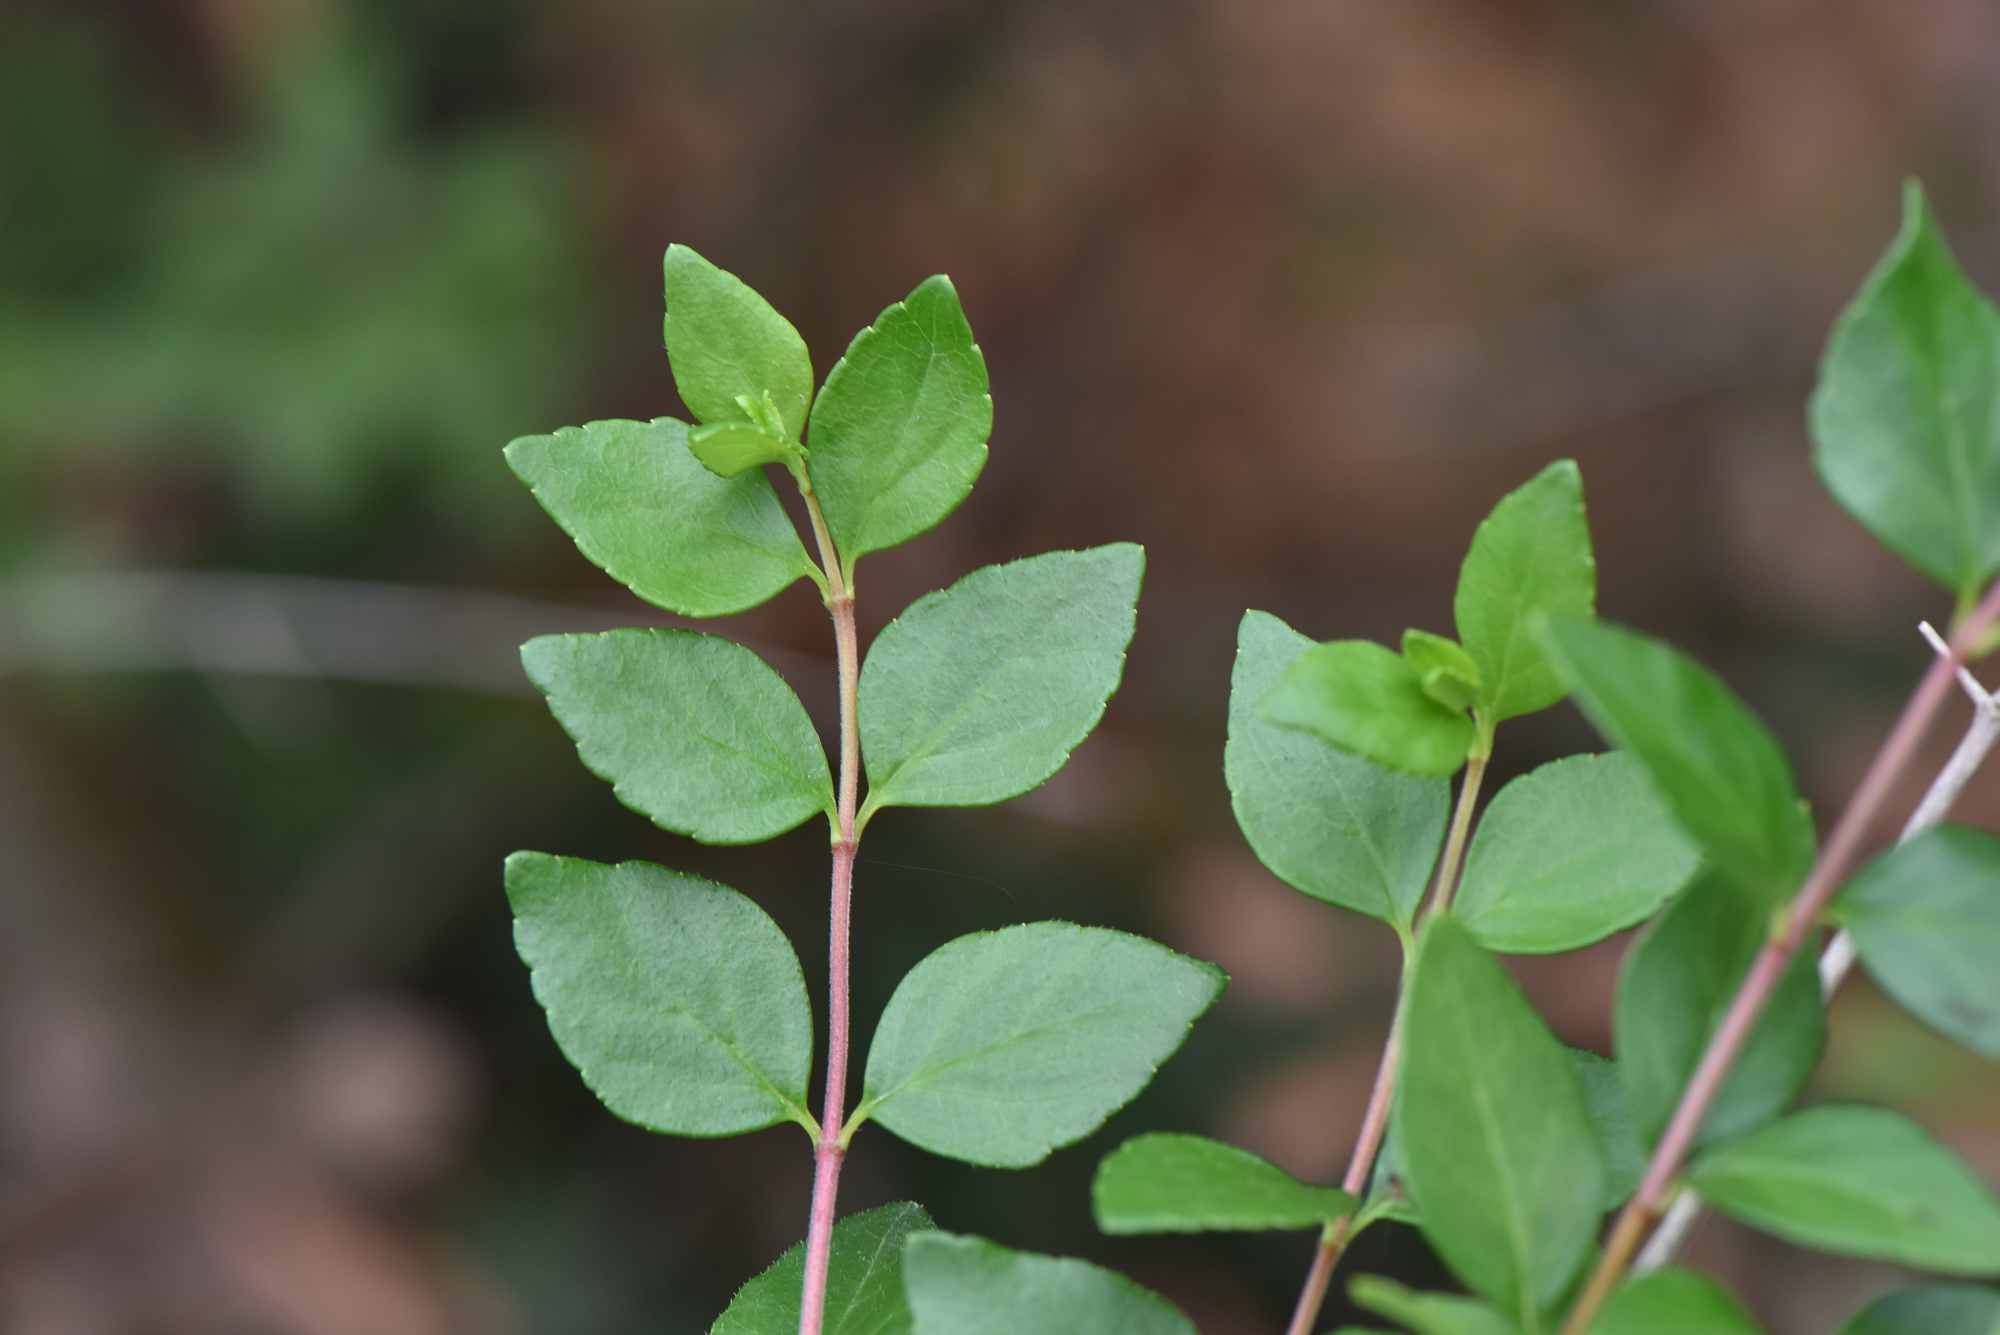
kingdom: Plantae
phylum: Tracheophyta
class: Magnoliopsida
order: Dipsacales
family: Caprifoliaceae
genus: Abelia
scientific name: Abelia chinensis
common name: Chinese abelia
